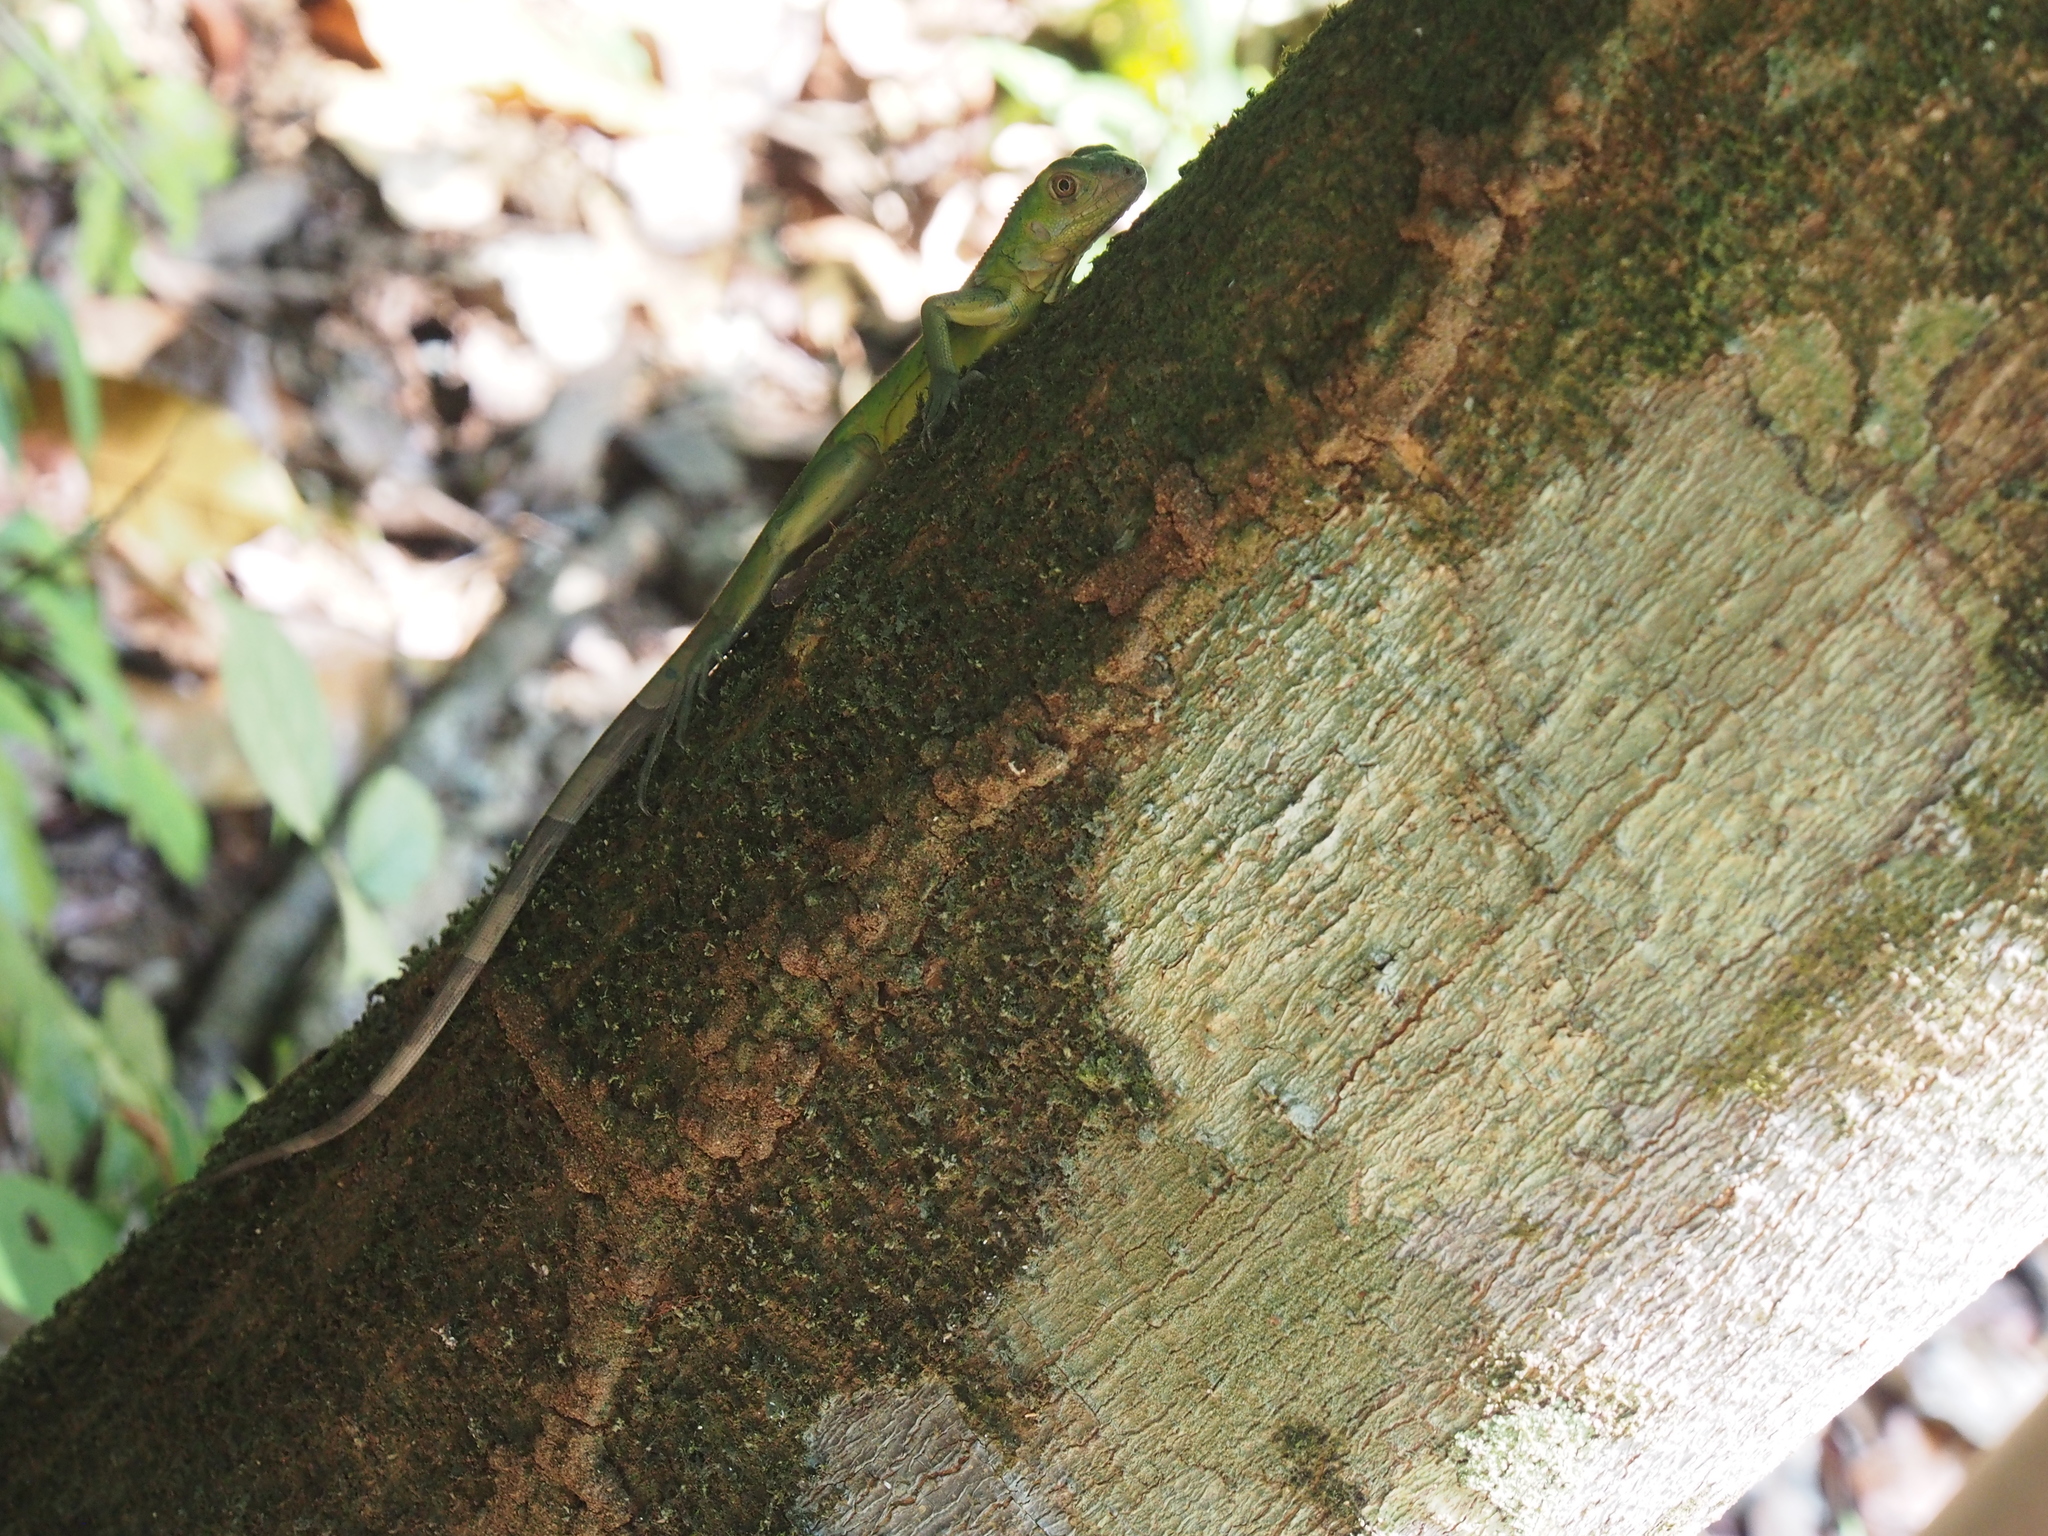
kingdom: Animalia
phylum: Chordata
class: Squamata
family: Iguanidae
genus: Iguana
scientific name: Iguana iguana
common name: Green iguana
